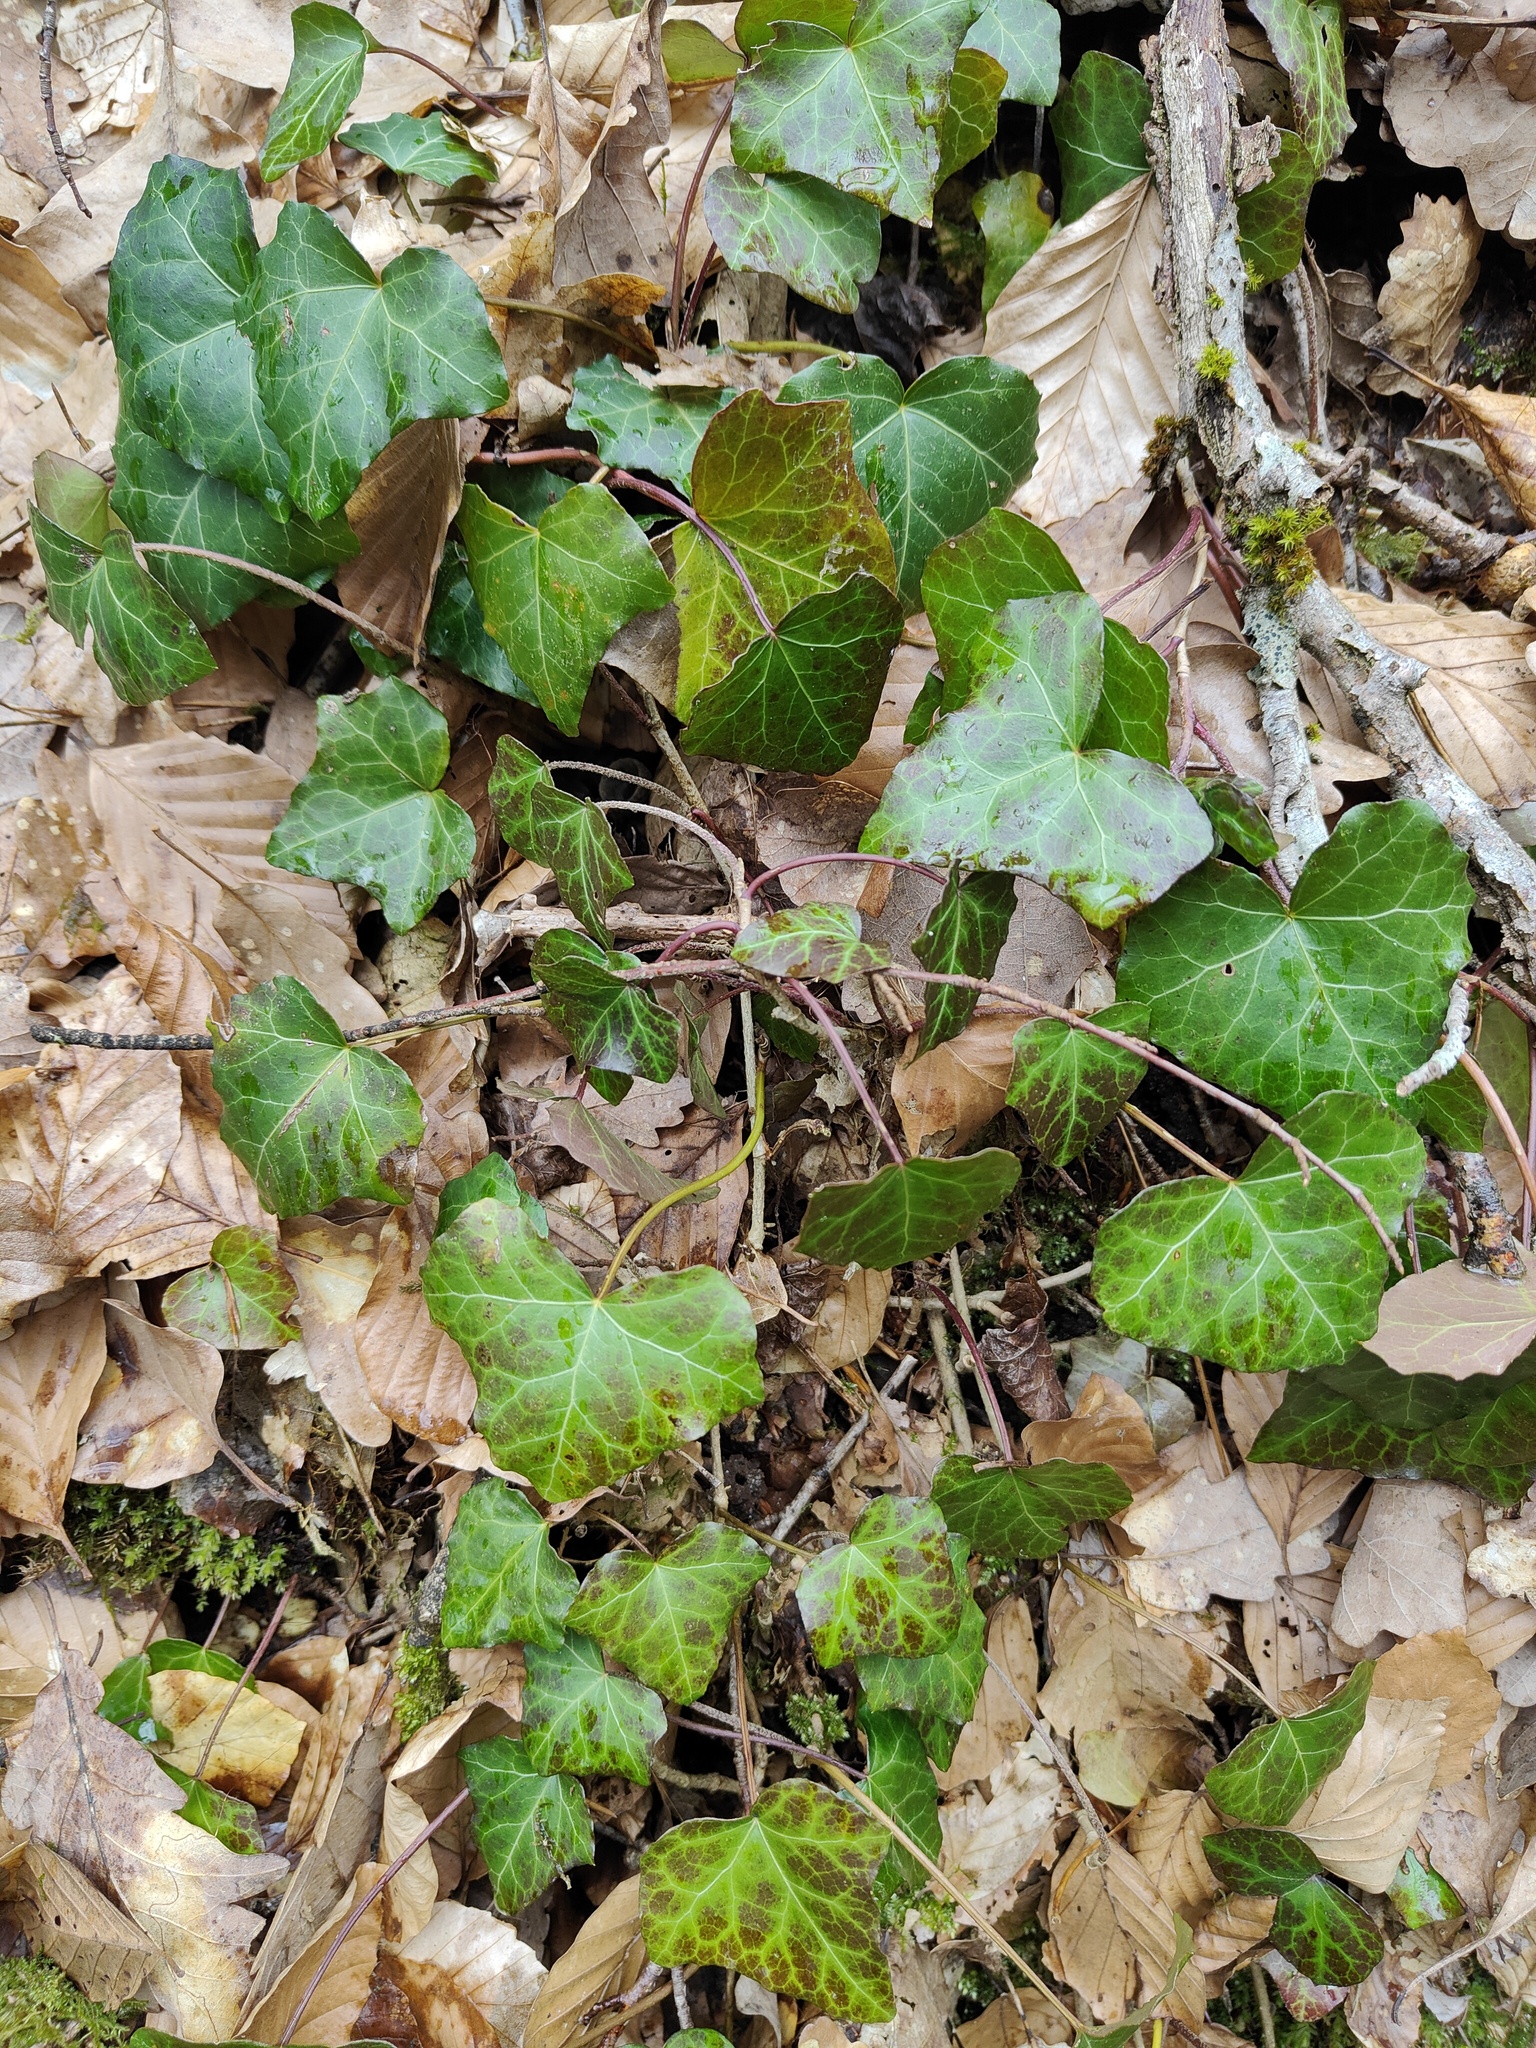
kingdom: Plantae
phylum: Tracheophyta
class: Magnoliopsida
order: Apiales
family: Araliaceae
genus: Hedera
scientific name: Hedera helix
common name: Ivy
